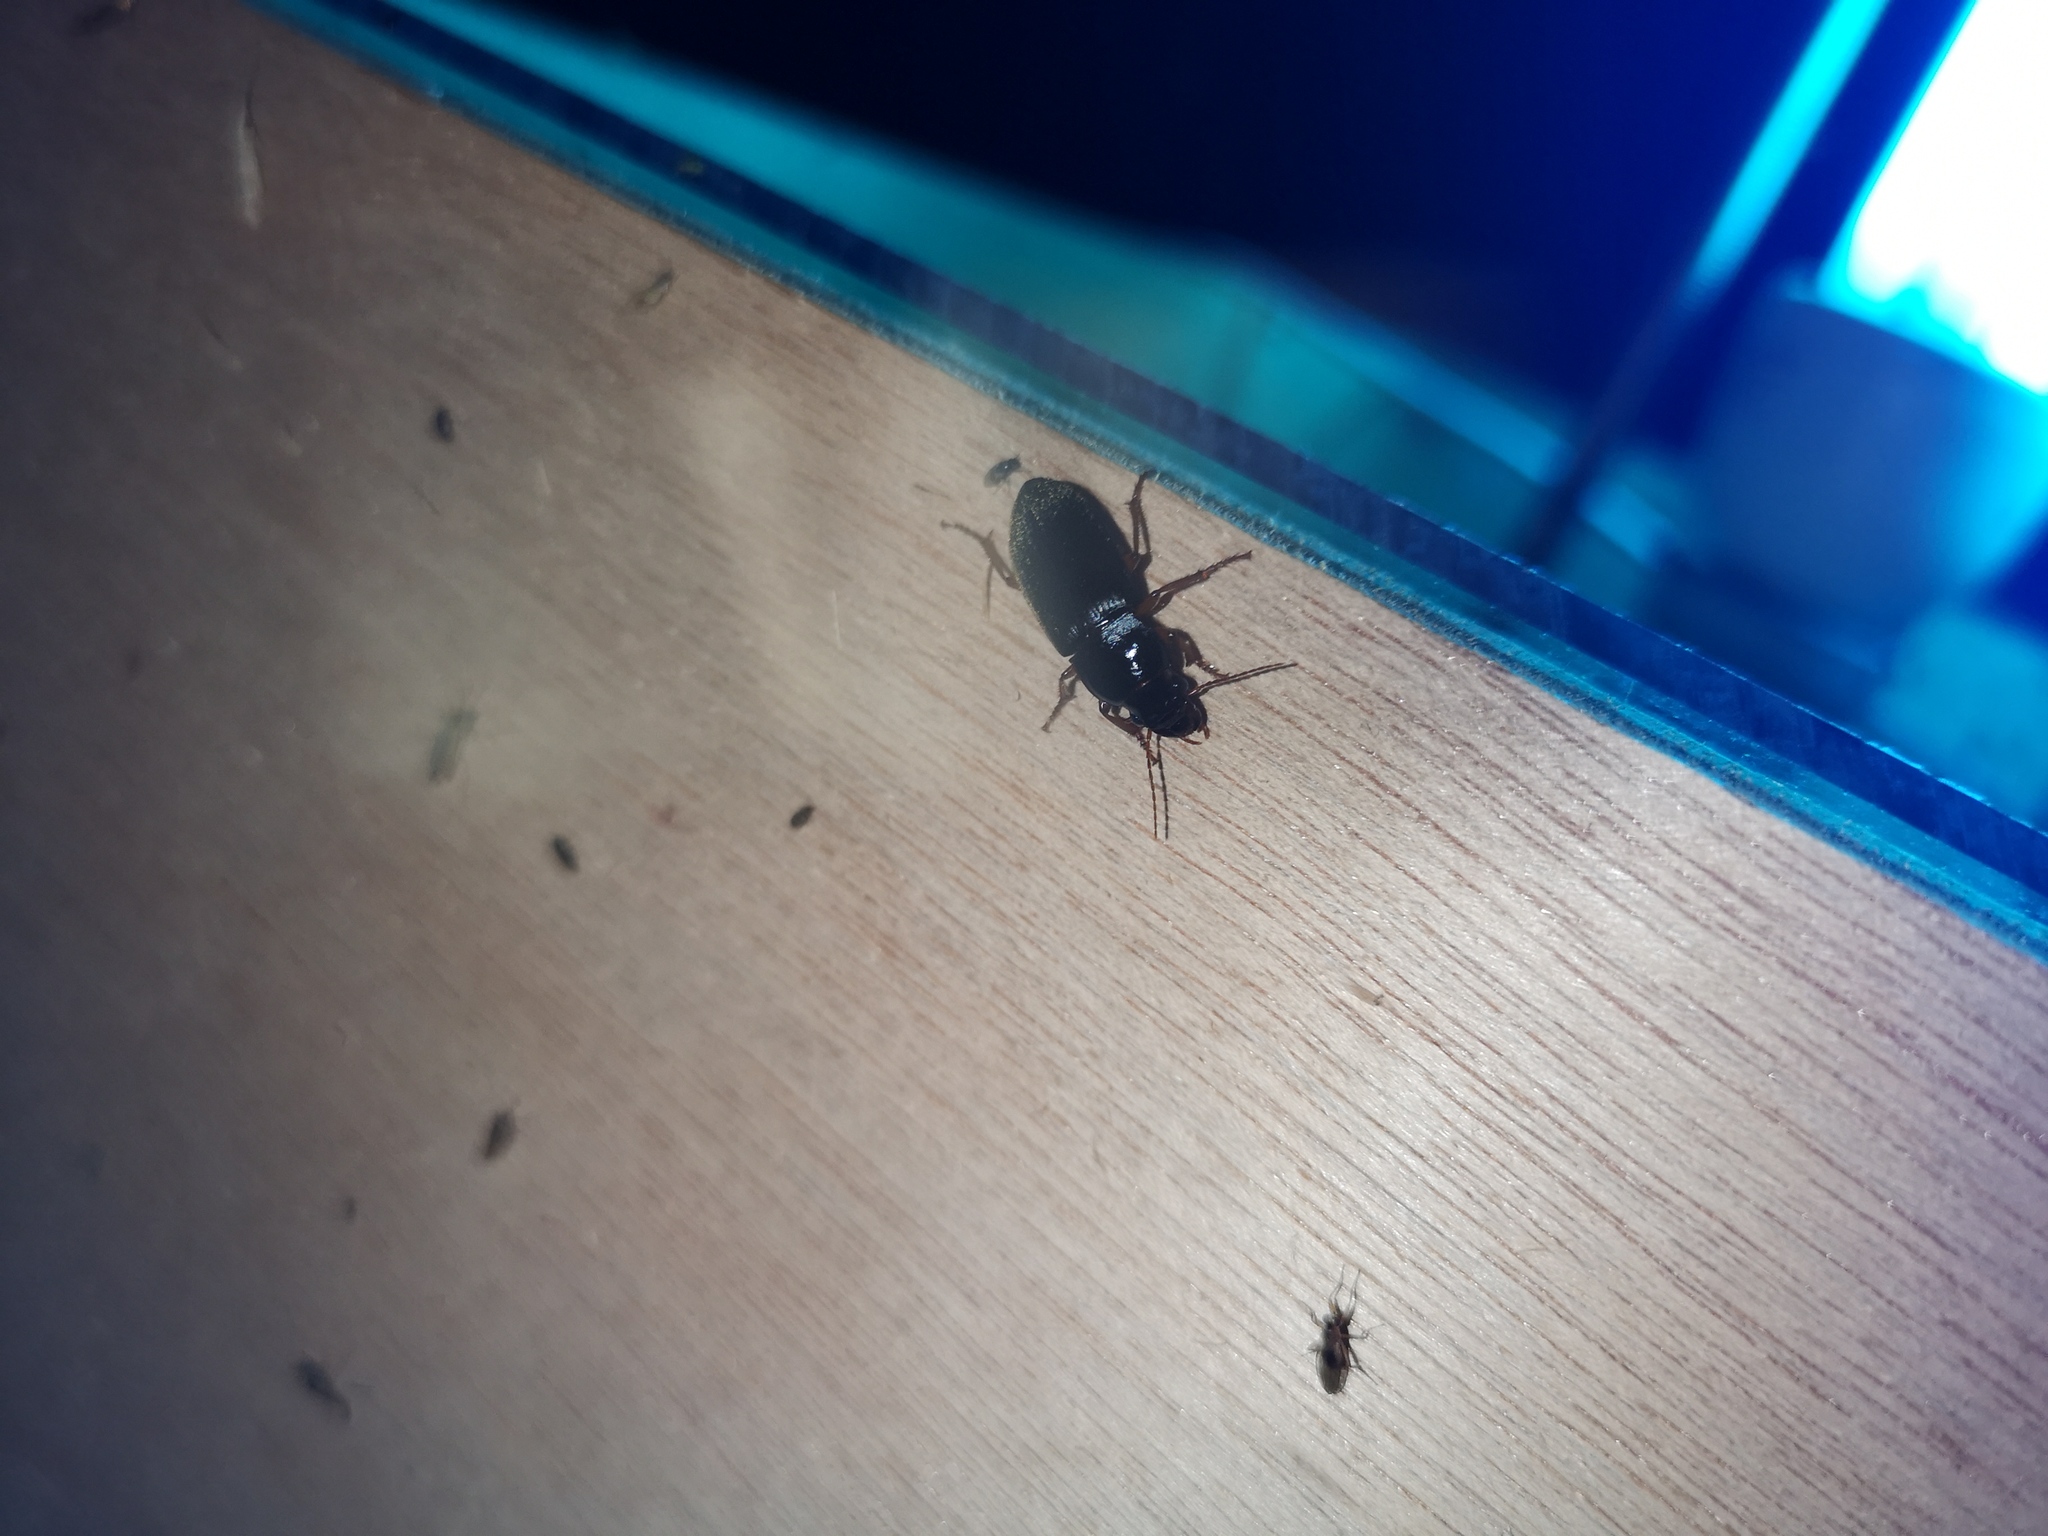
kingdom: Animalia
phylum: Arthropoda
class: Insecta
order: Coleoptera
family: Carabidae
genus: Harpalus
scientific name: Harpalus rufipes
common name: Strawberry harp ground beetle
